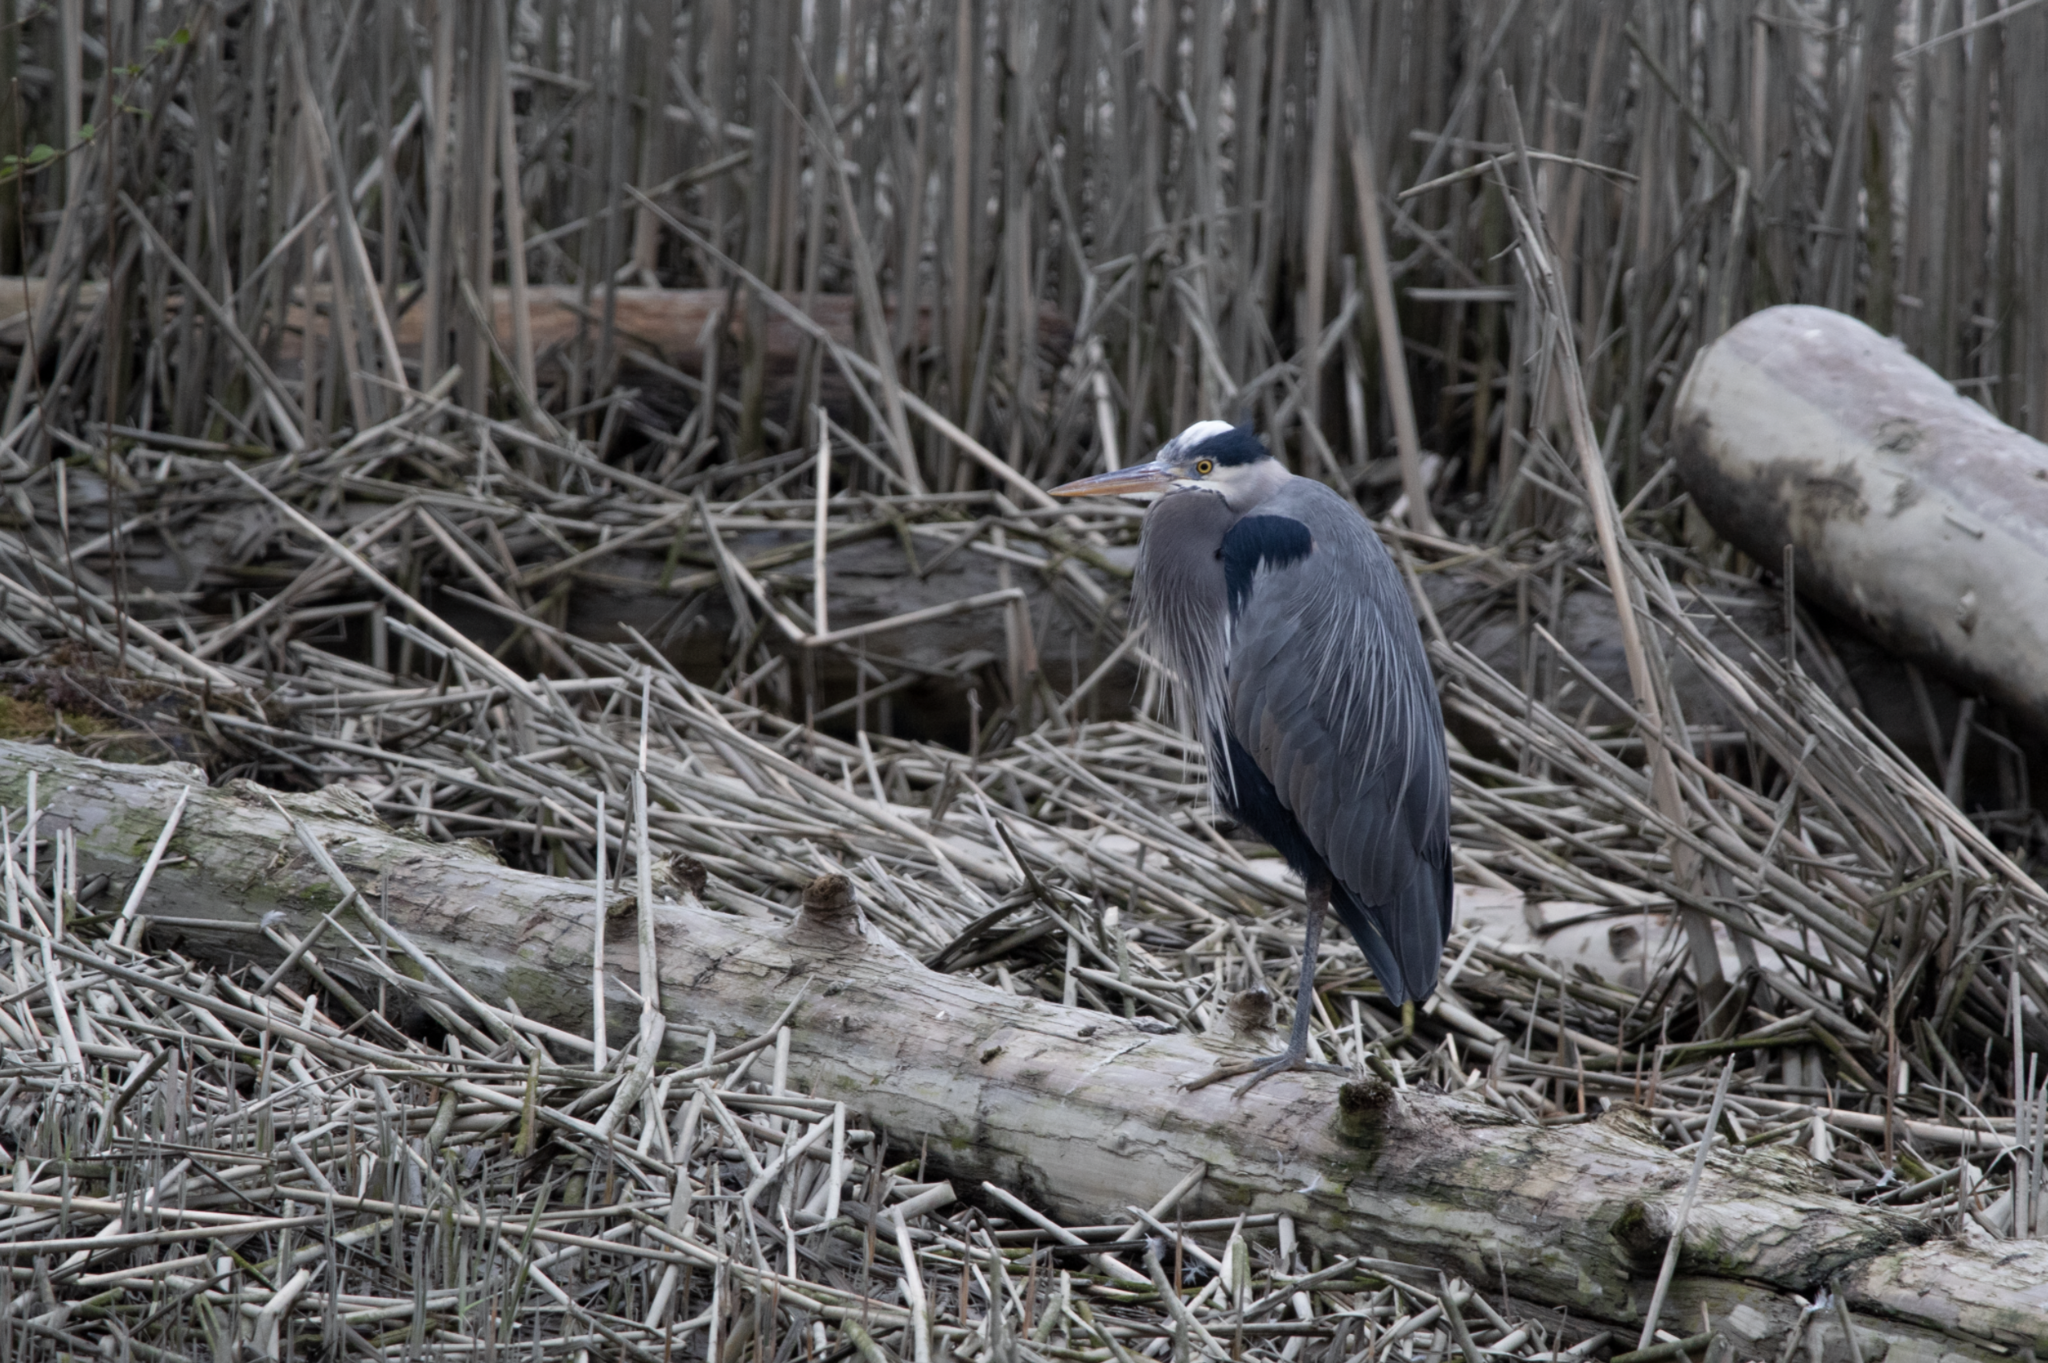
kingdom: Animalia
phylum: Chordata
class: Aves
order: Pelecaniformes
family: Ardeidae
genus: Ardea
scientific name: Ardea herodias
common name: Great blue heron
